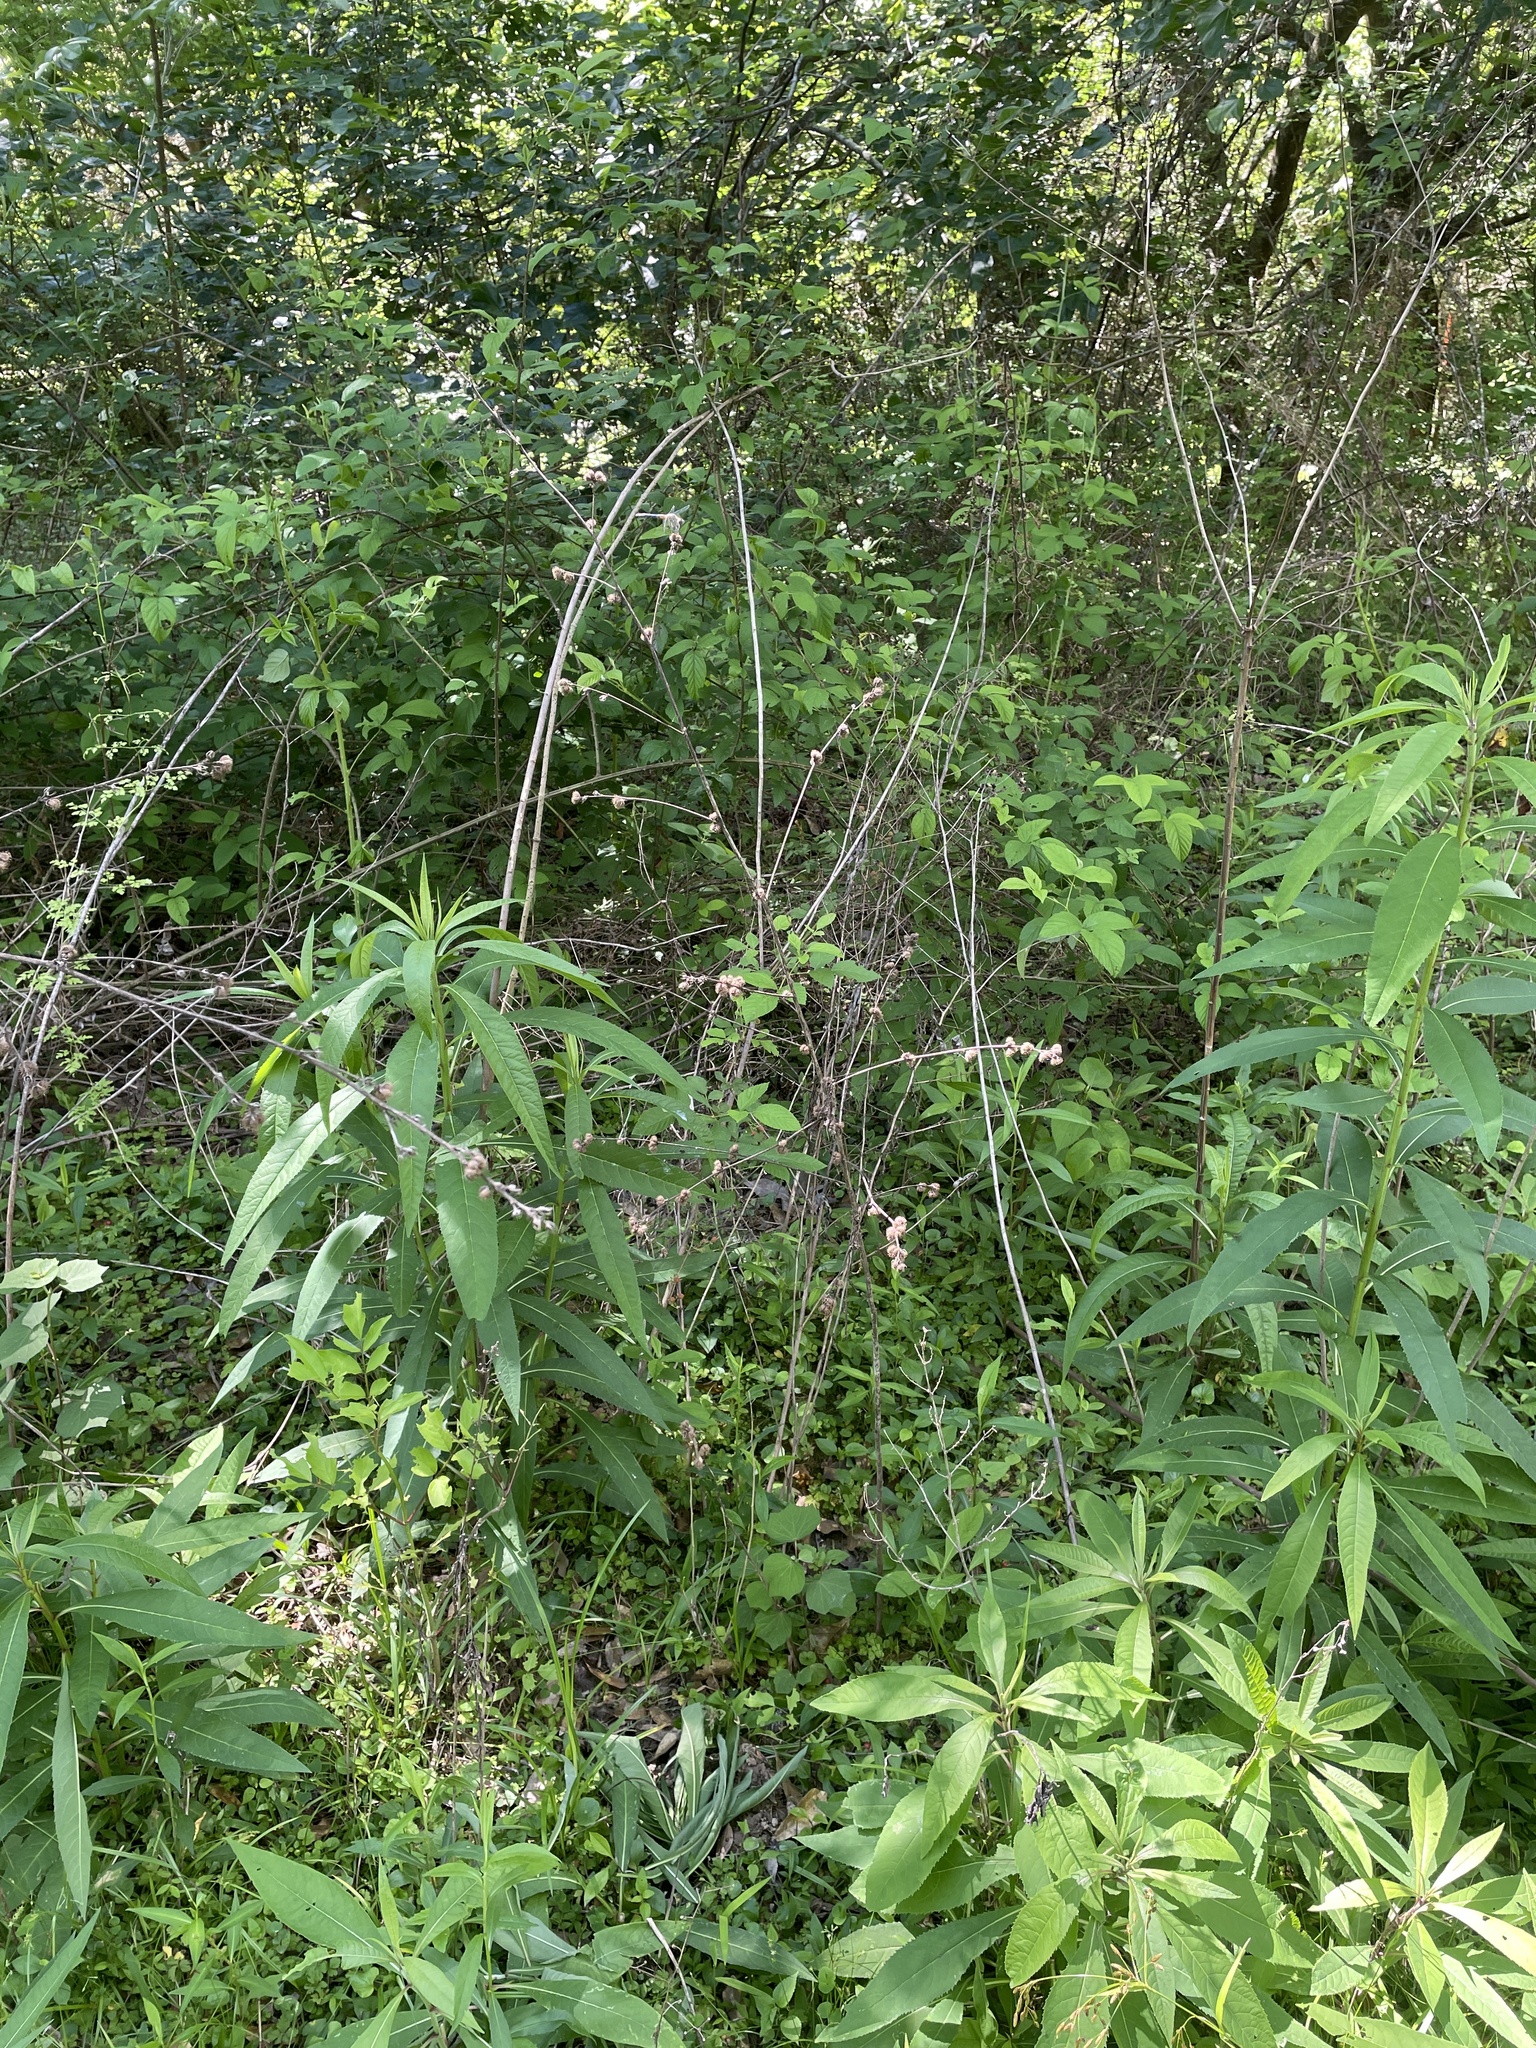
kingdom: Plantae
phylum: Tracheophyta
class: Magnoliopsida
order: Malvales
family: Malvaceae
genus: Urena
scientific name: Urena lobata
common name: Caesarweed
